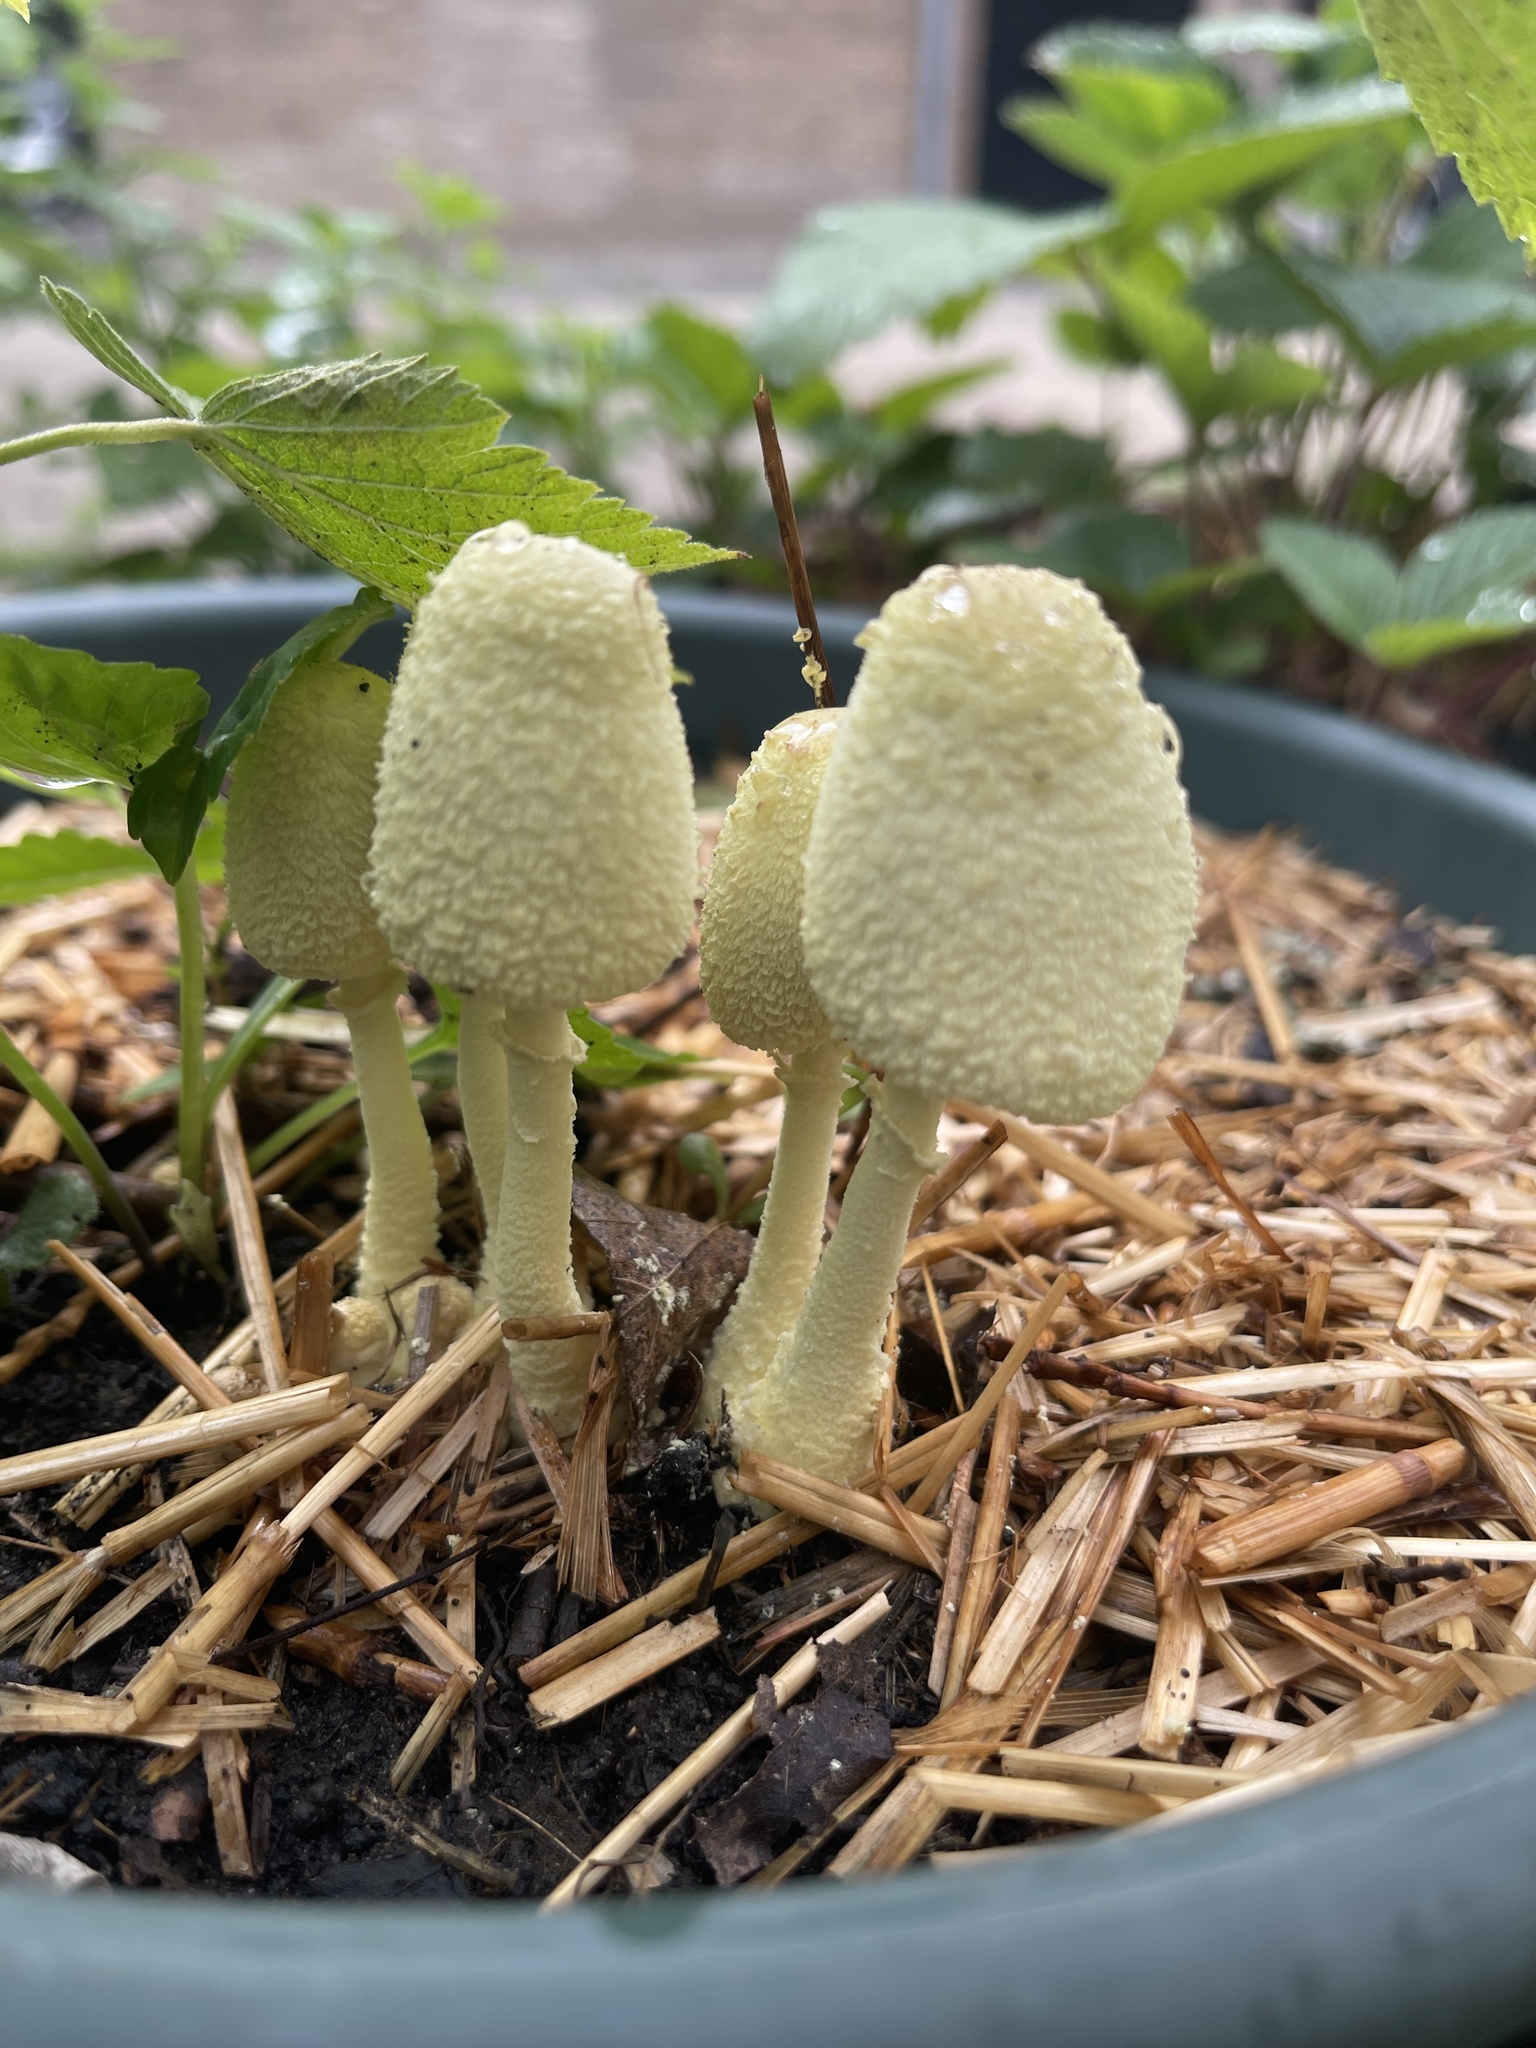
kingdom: Fungi
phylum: Basidiomycota
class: Agaricomycetes
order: Agaricales
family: Agaricaceae
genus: Leucocoprinus
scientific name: Leucocoprinus birnbaumii
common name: Plantpot dapperling
